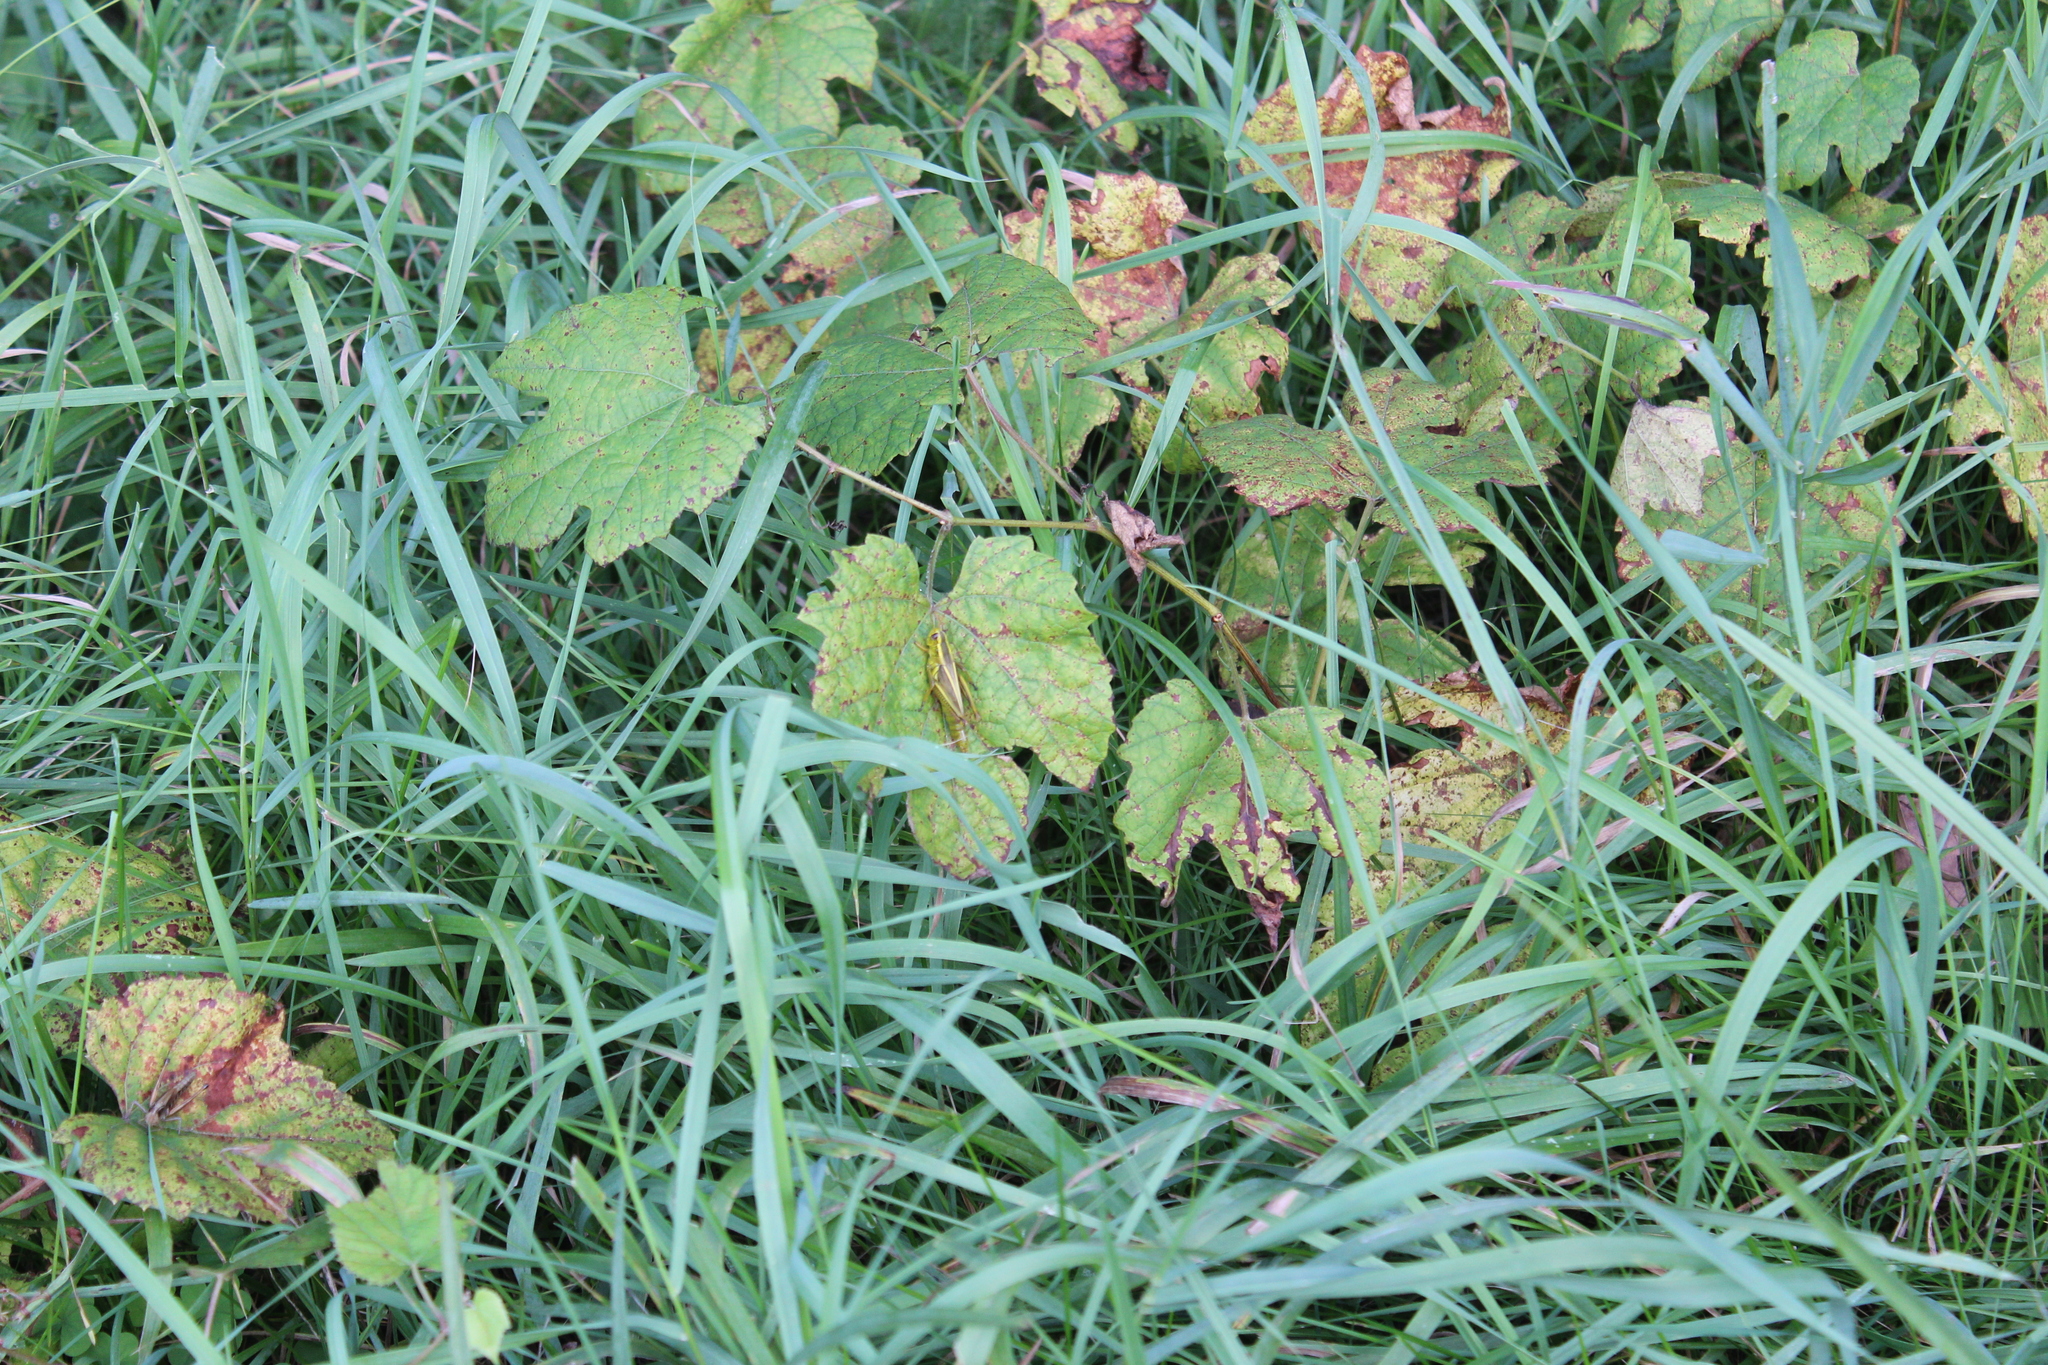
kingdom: Animalia
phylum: Arthropoda
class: Insecta
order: Orthoptera
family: Acrididae
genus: Melanoplus
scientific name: Melanoplus bivittatus
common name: Two-striped grasshopper
